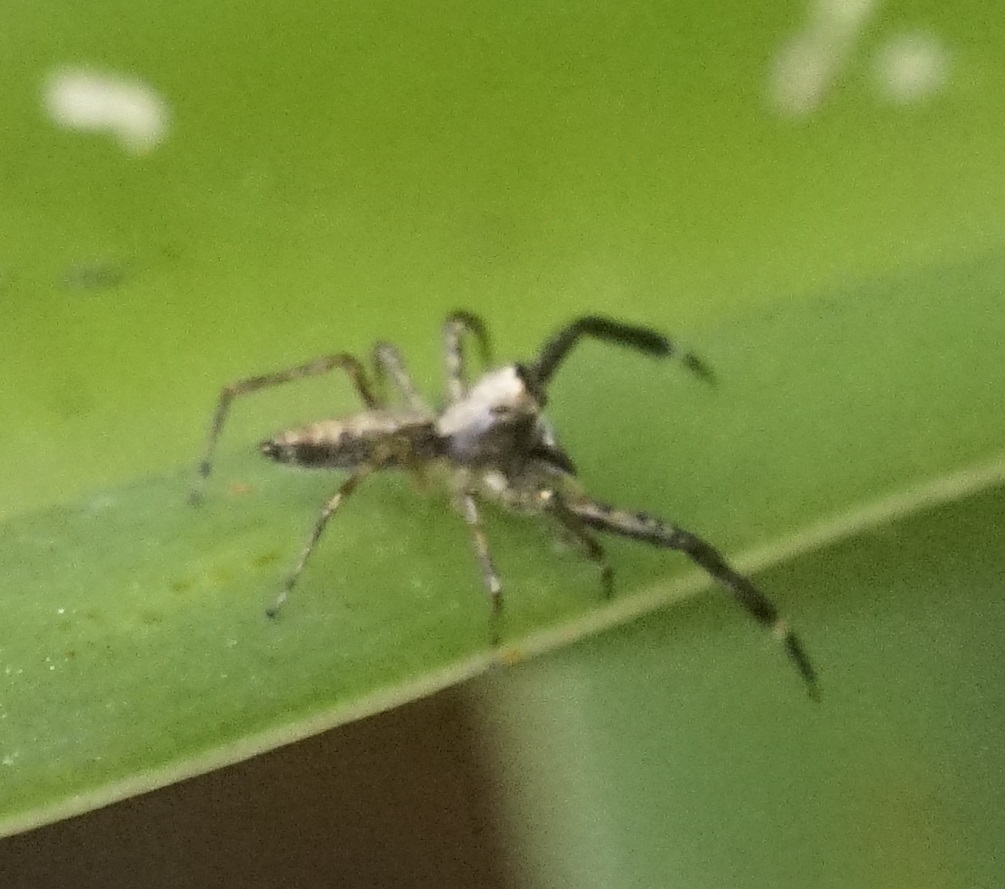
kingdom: Animalia
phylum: Arthropoda
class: Arachnida
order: Araneae
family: Salticidae
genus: Helpis
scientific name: Helpis minitabunda
